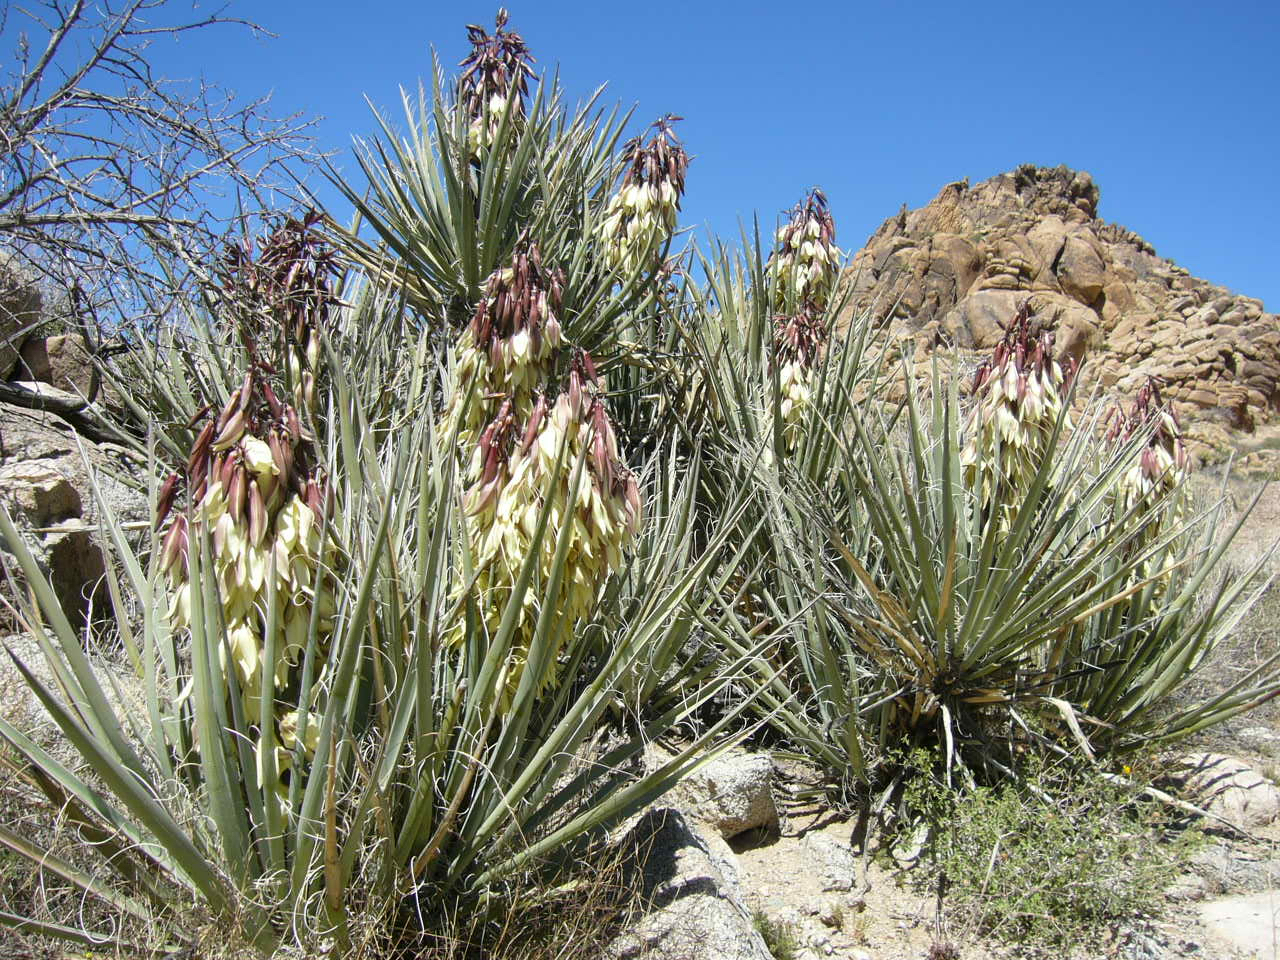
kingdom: Plantae
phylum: Tracheophyta
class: Liliopsida
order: Asparagales
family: Asparagaceae
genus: Yucca
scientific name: Yucca baccata
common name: Banana yucca
